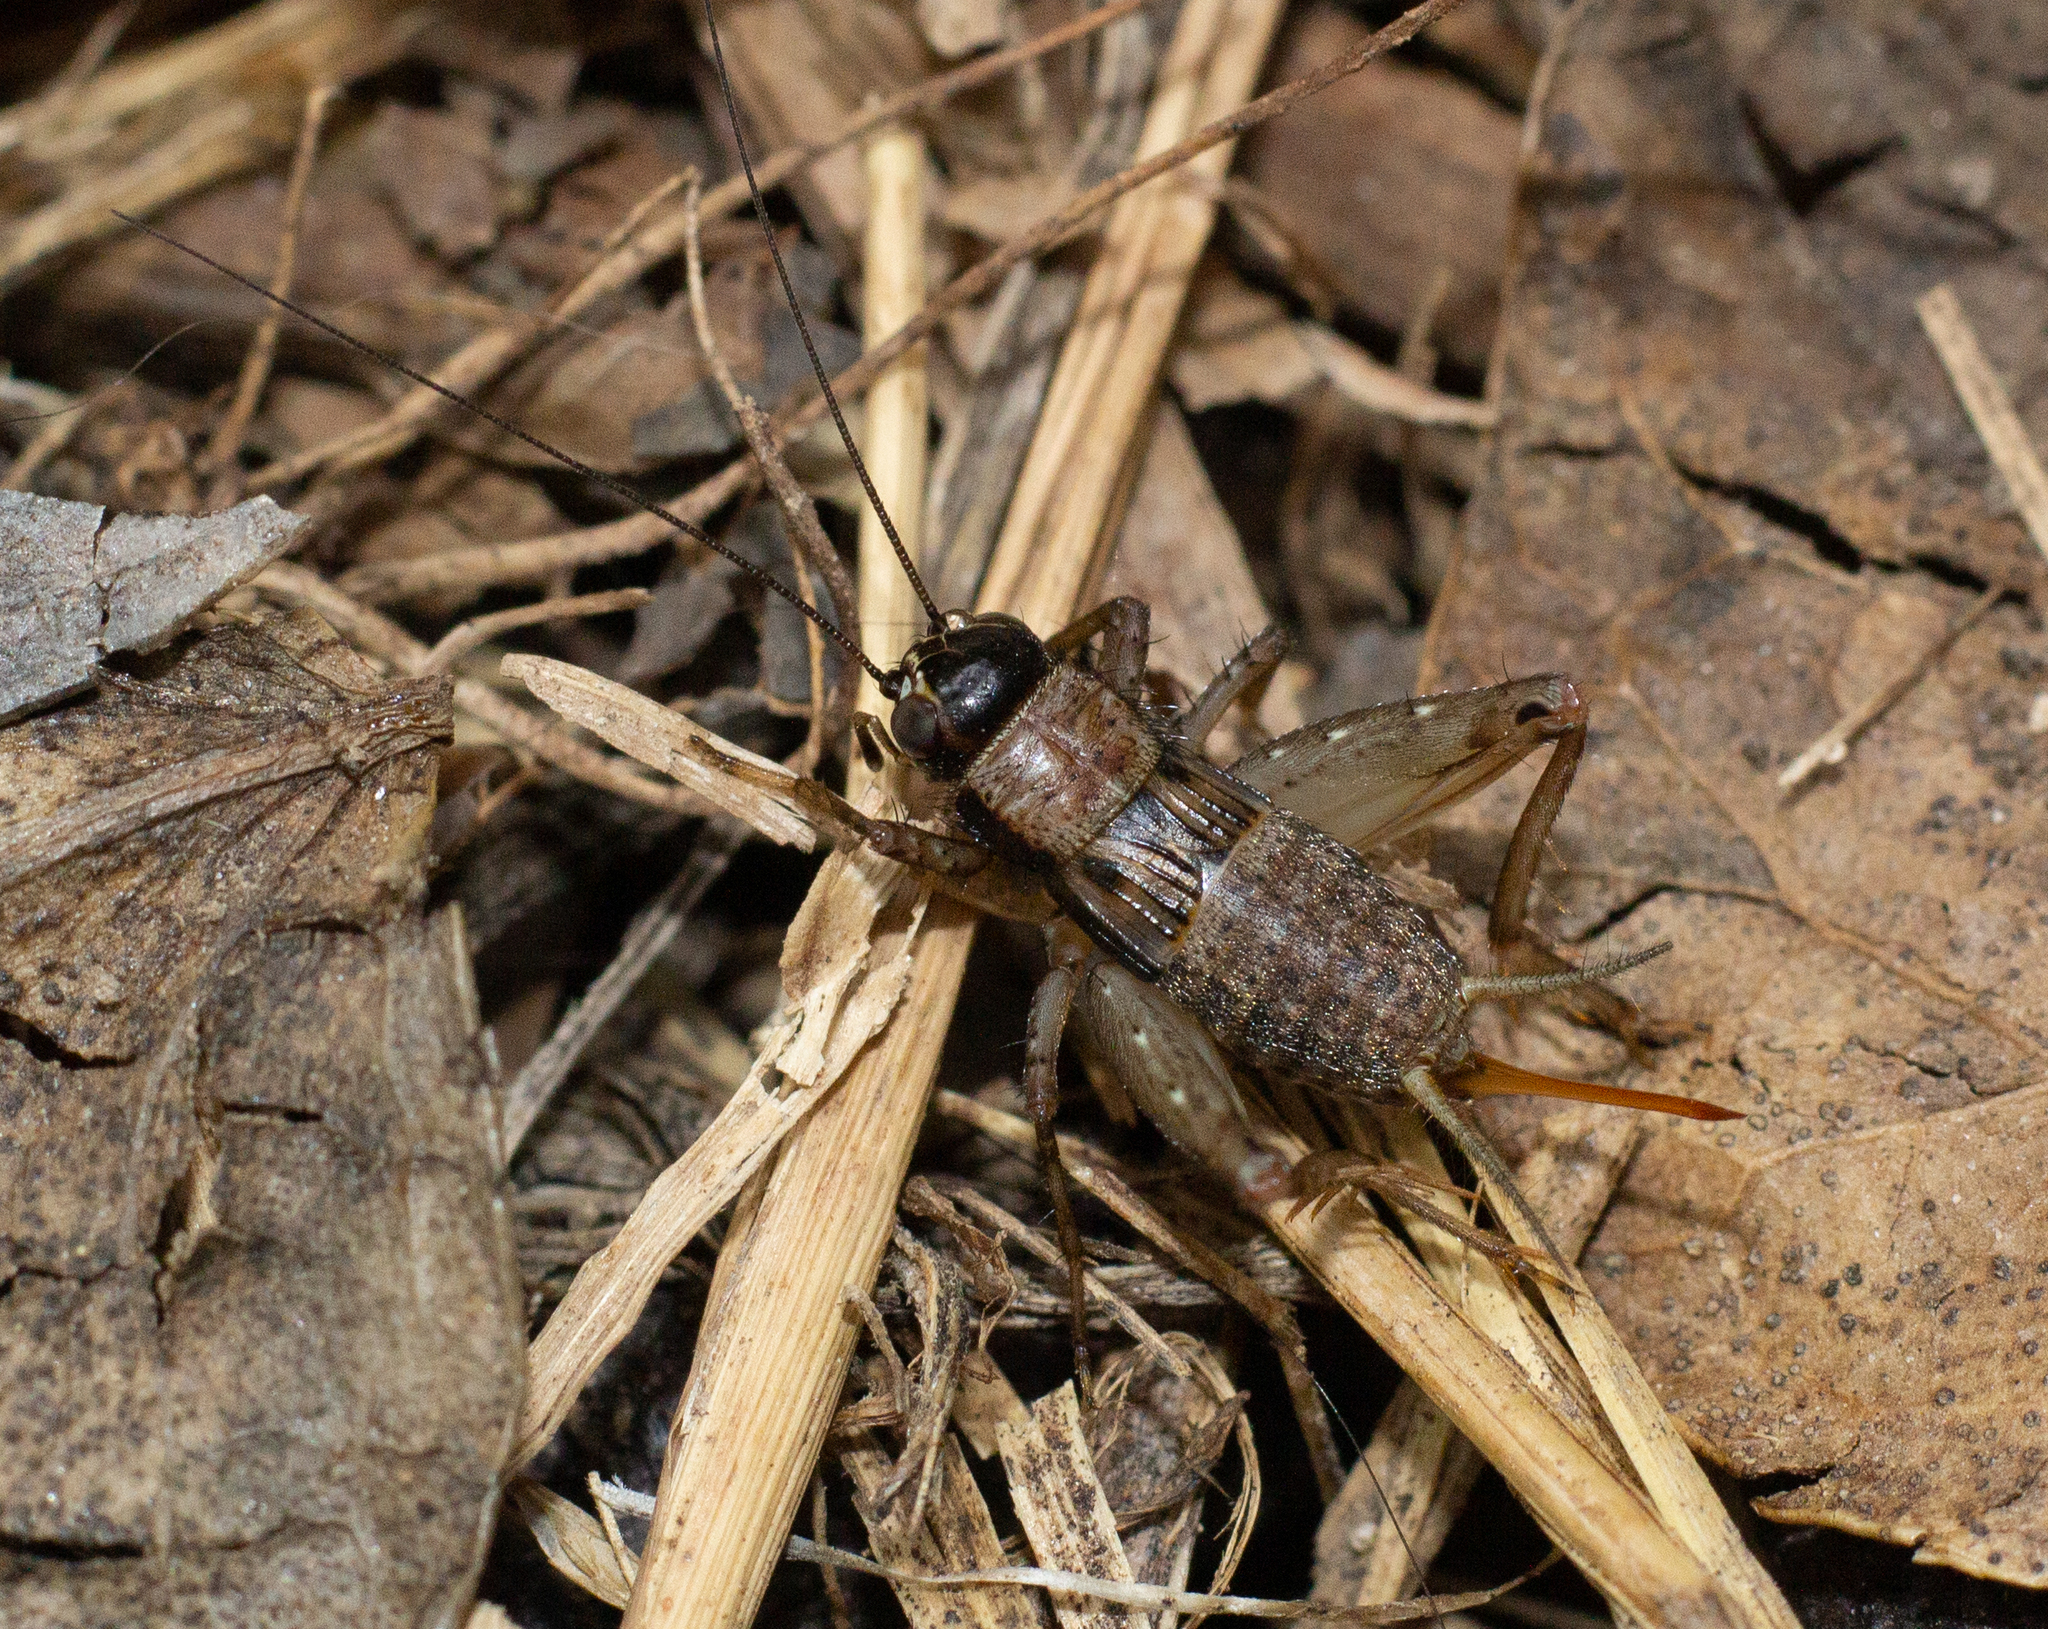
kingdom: Animalia
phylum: Arthropoda
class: Insecta
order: Orthoptera
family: Trigonidiidae
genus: Nemobius
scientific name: Nemobius sylvestris
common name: Wood-cricket
